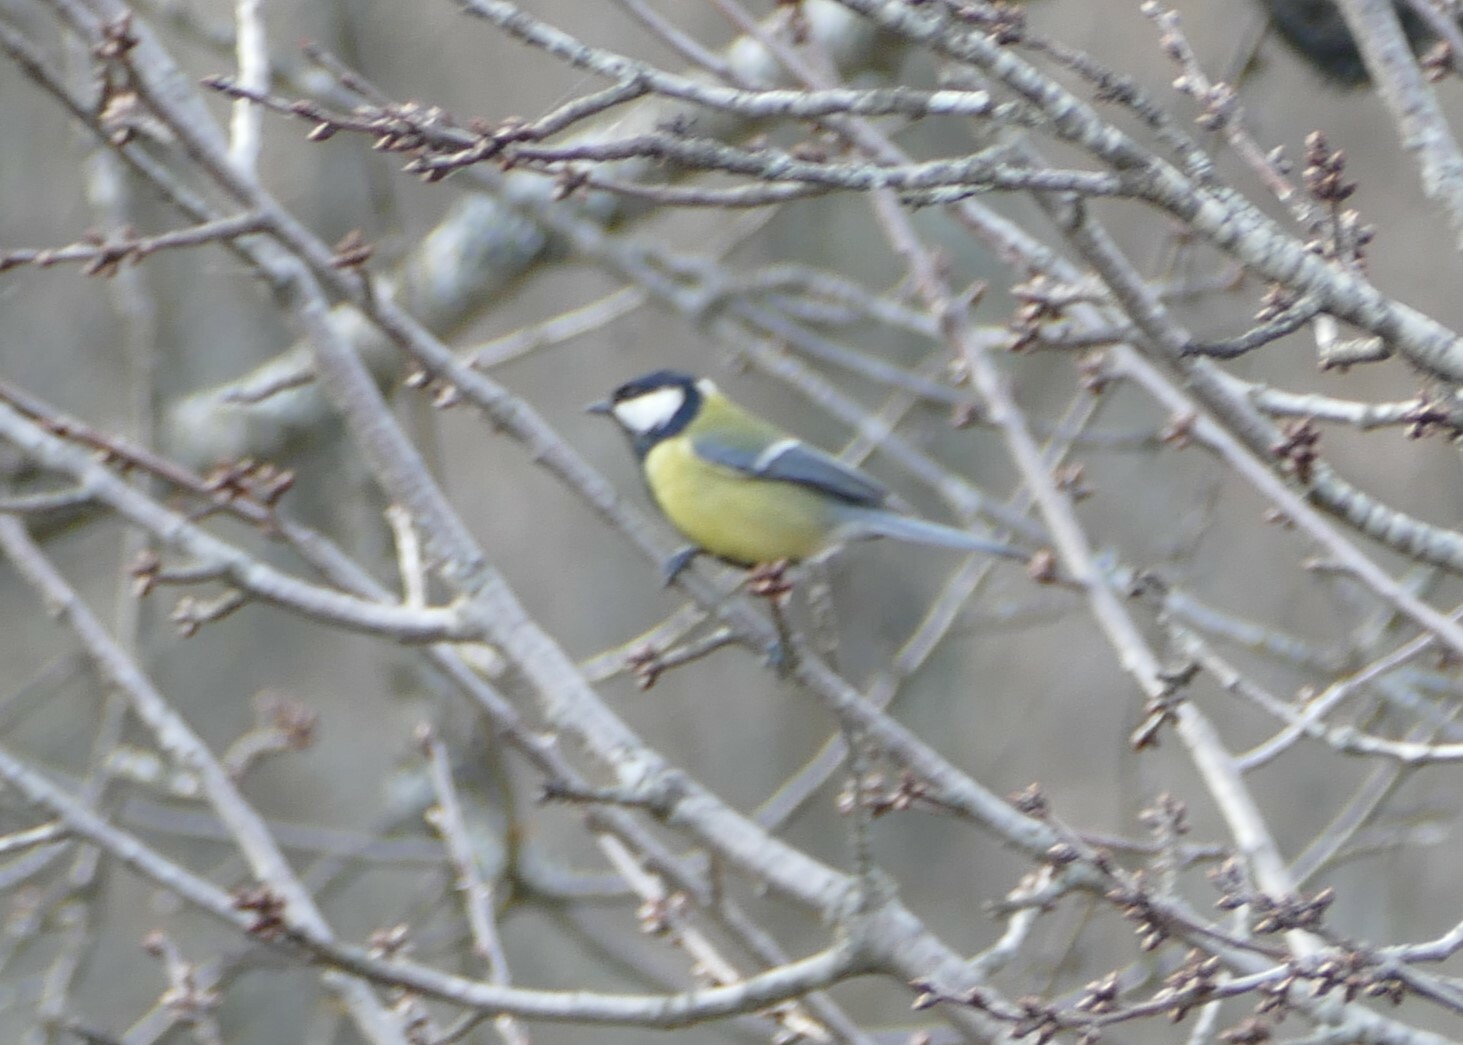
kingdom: Animalia
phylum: Chordata
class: Aves
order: Passeriformes
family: Paridae
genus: Parus
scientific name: Parus major
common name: Great tit
